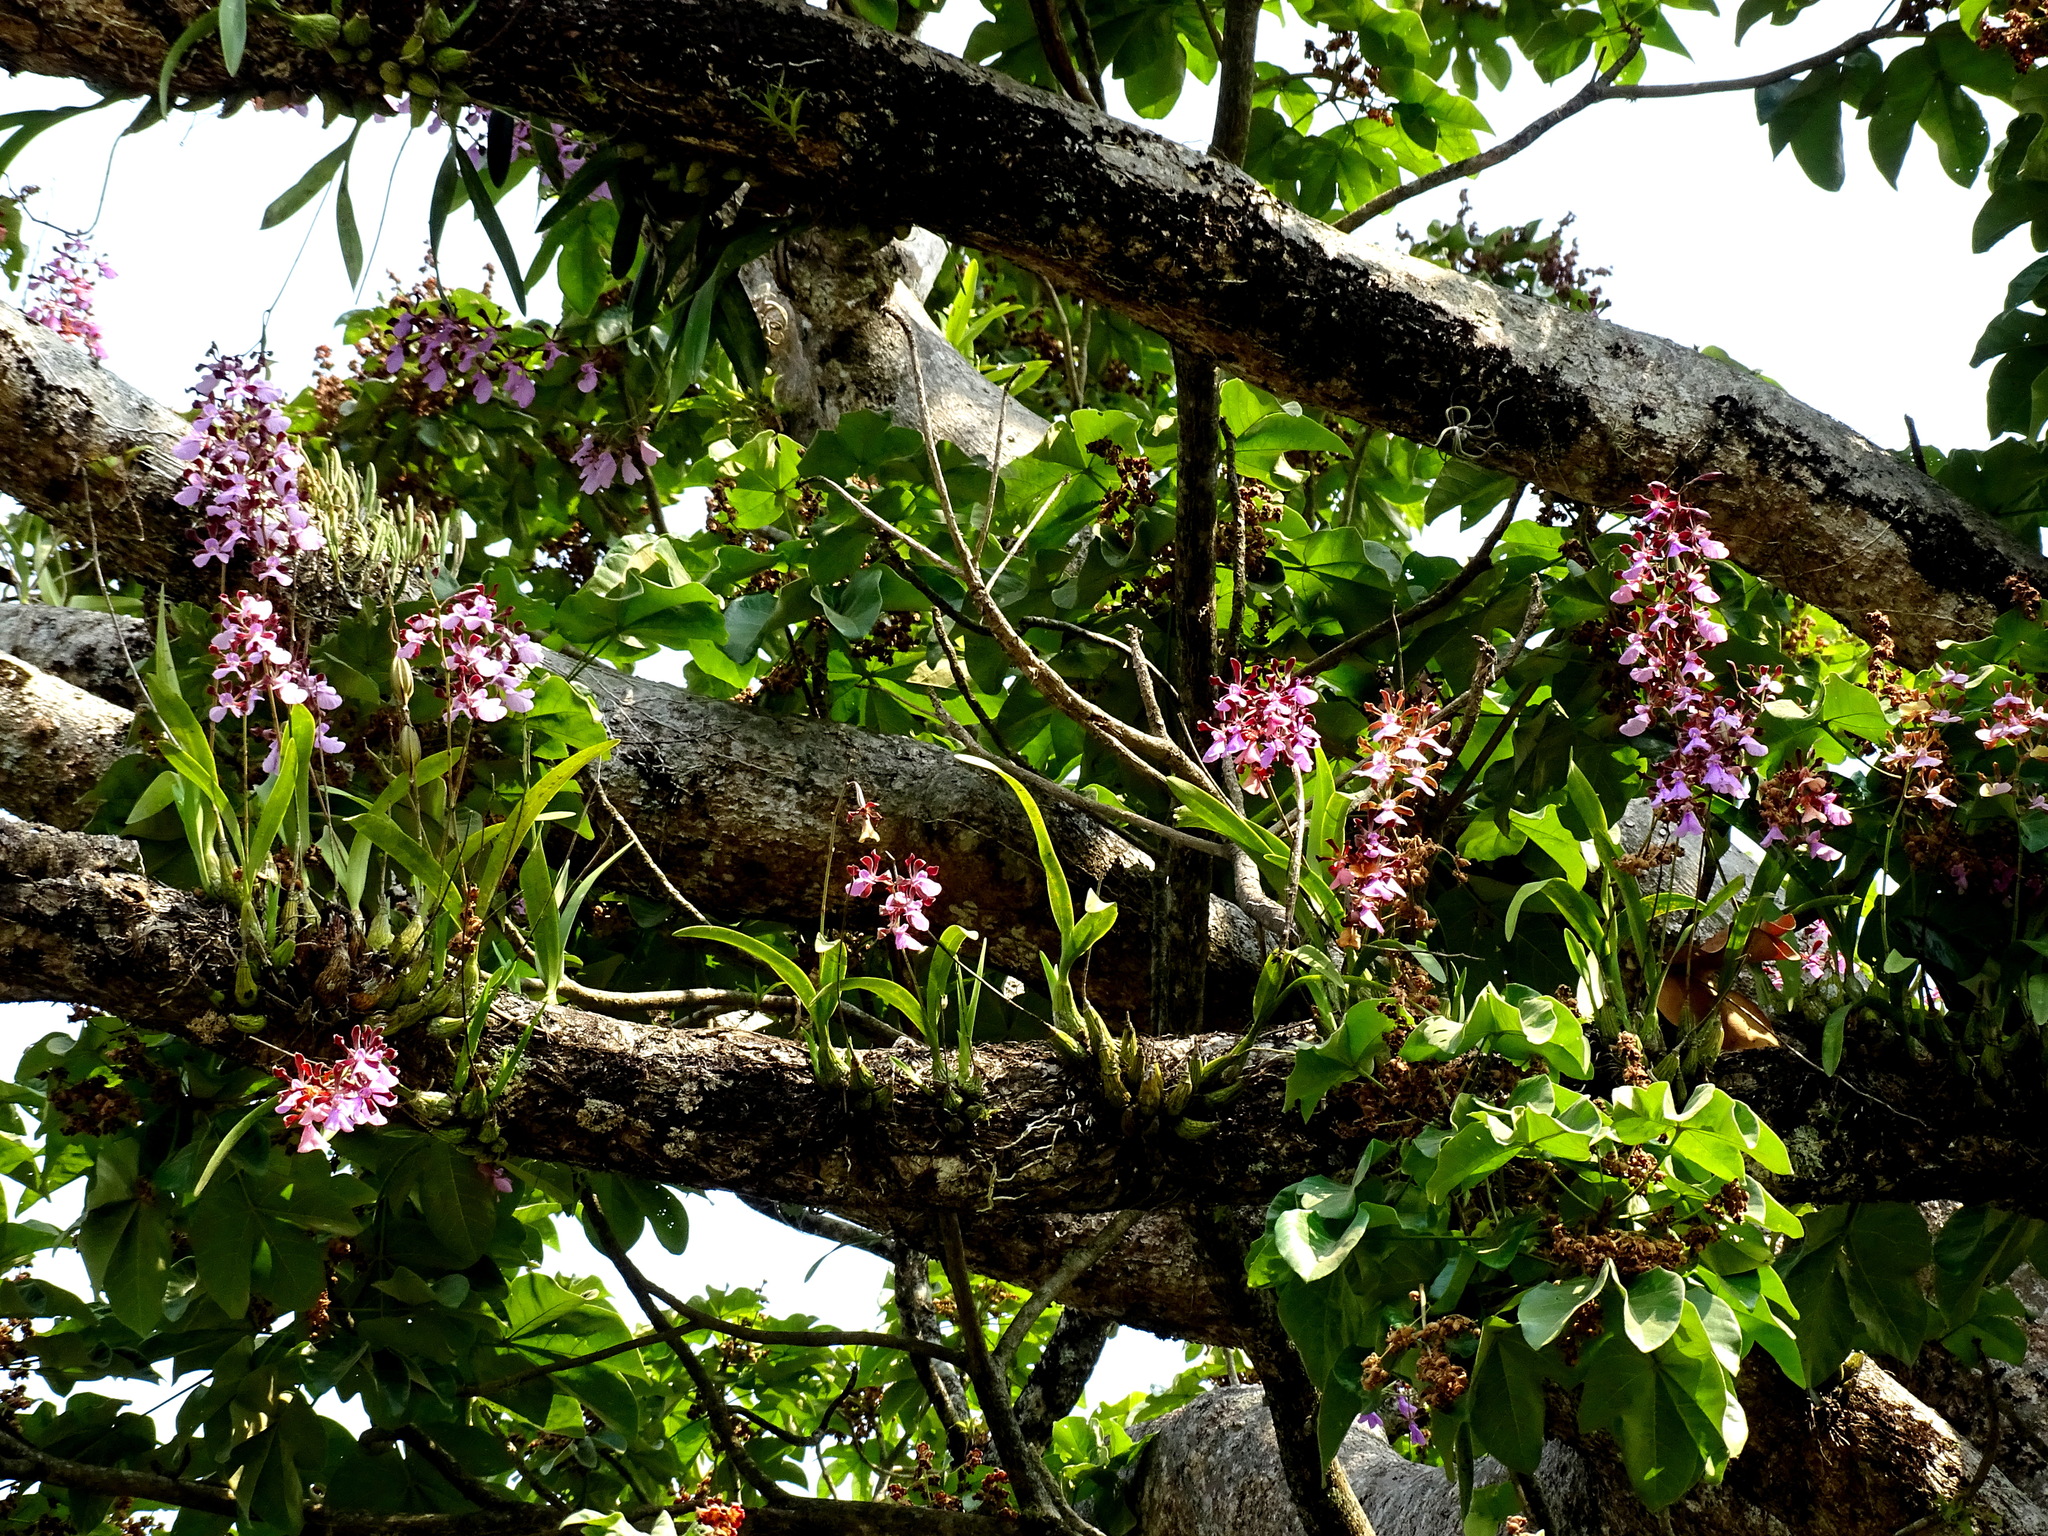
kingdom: Plantae
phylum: Tracheophyta
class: Liliopsida
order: Asparagales
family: Orchidaceae
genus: Encyclia
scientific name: Encyclia cordigera
